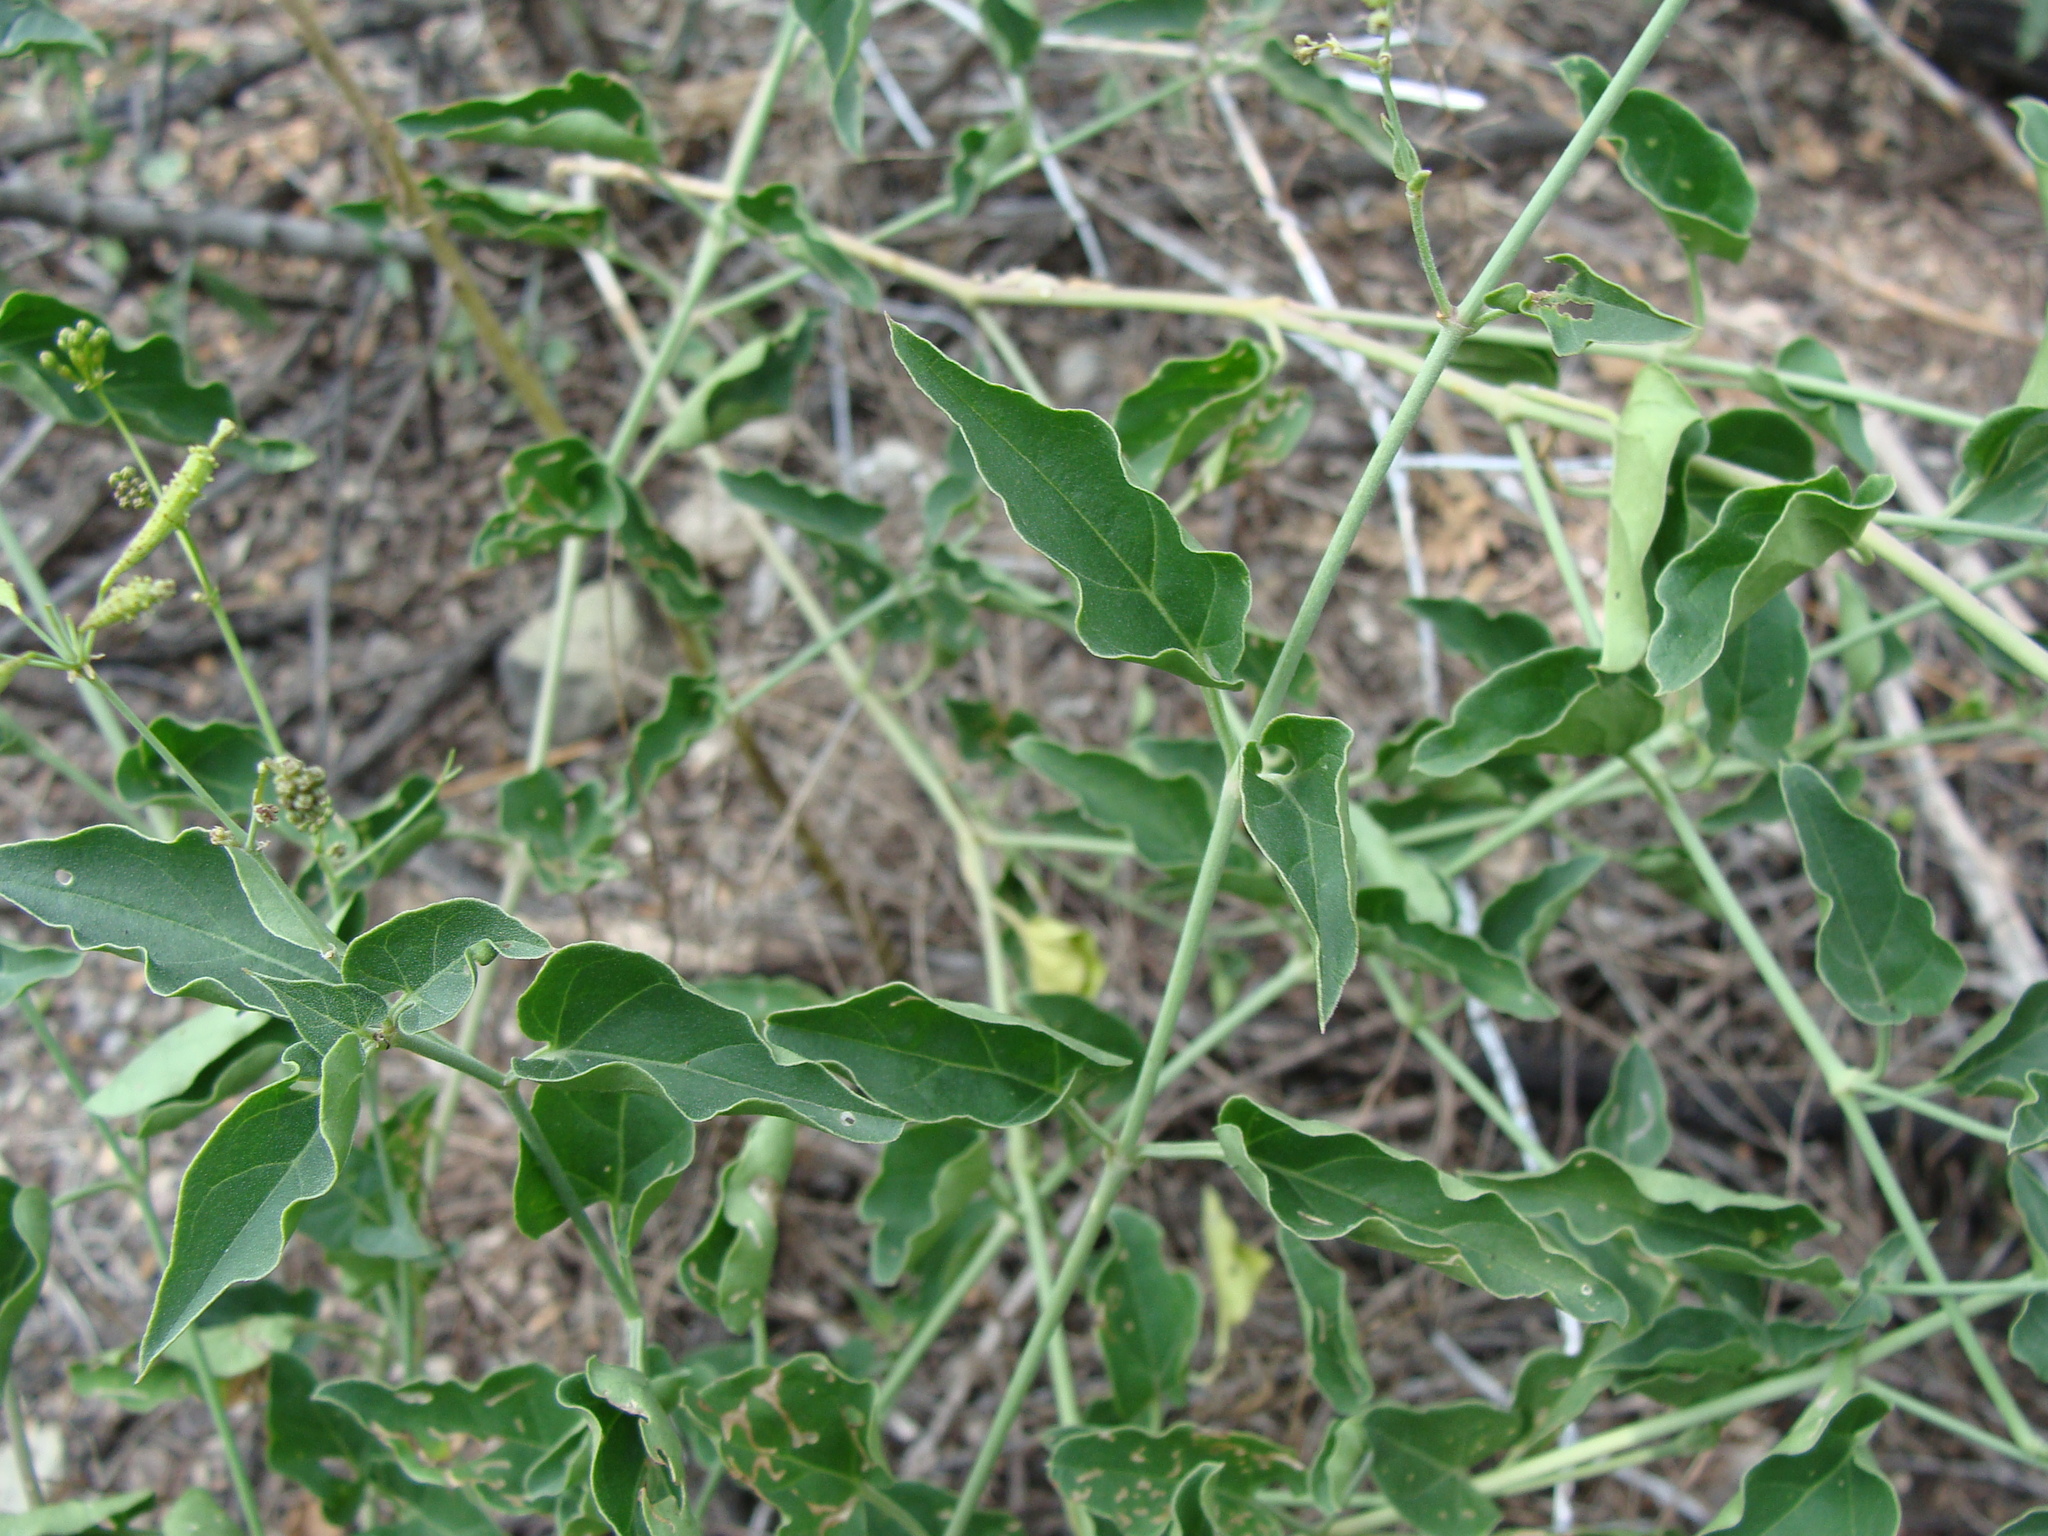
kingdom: Plantae
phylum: Tracheophyta
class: Magnoliopsida
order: Caryophyllales
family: Nyctaginaceae
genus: Commicarpus
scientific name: Commicarpus scandens
